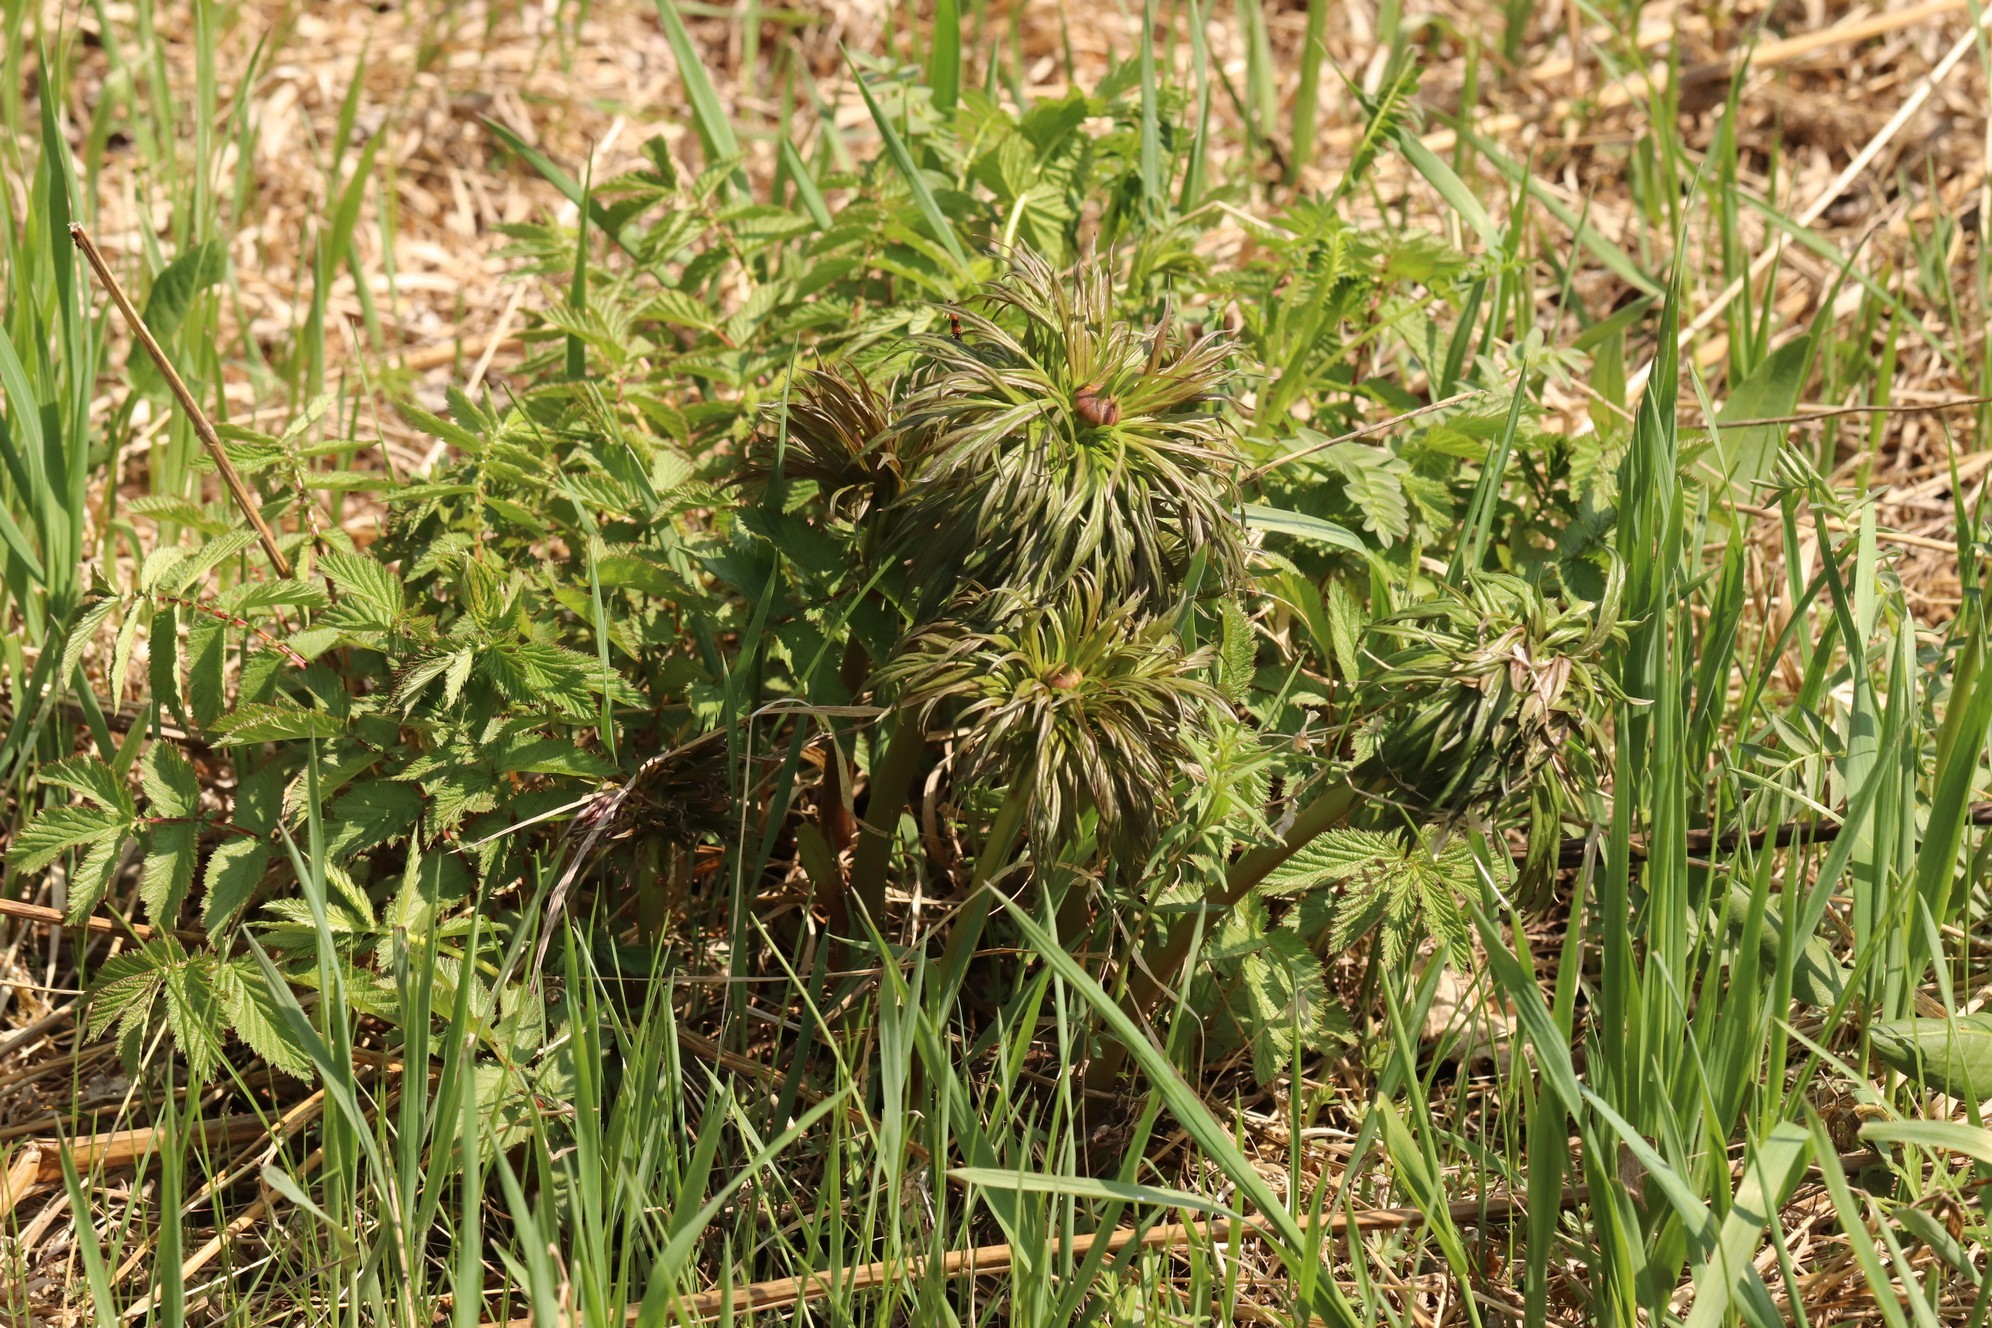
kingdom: Plantae
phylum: Tracheophyta
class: Magnoliopsida
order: Saxifragales
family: Paeoniaceae
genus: Paeonia
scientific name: Paeonia anomala
